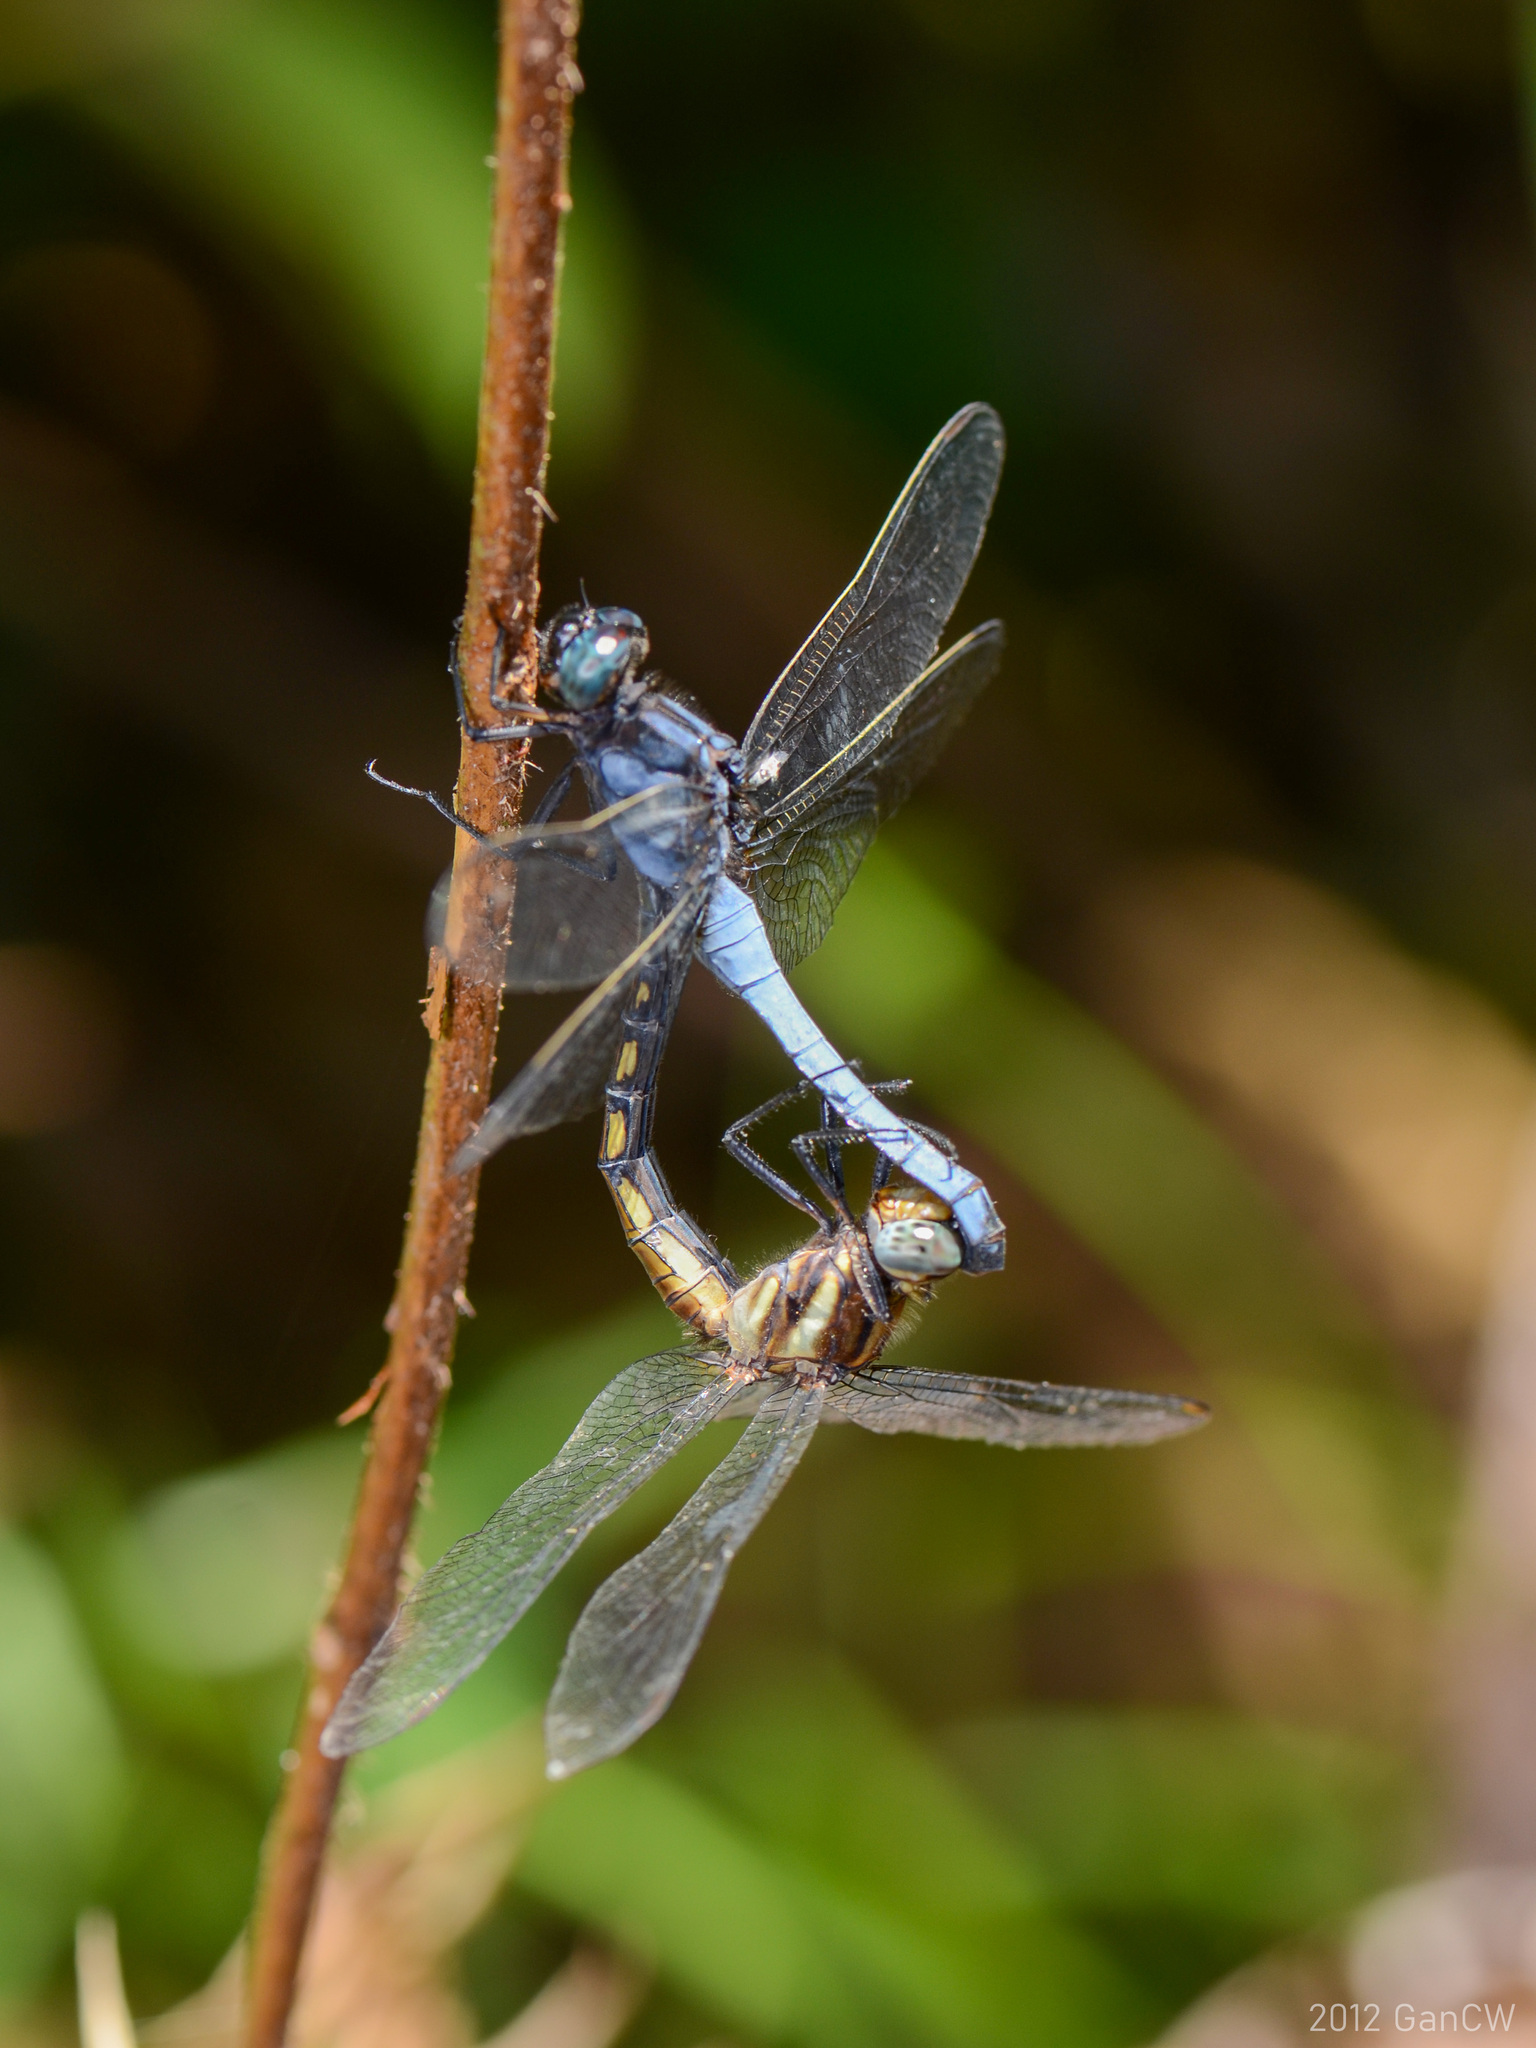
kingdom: Animalia
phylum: Arthropoda
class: Insecta
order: Odonata
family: Libellulidae
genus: Orthetrum
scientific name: Orthetrum glaucum
